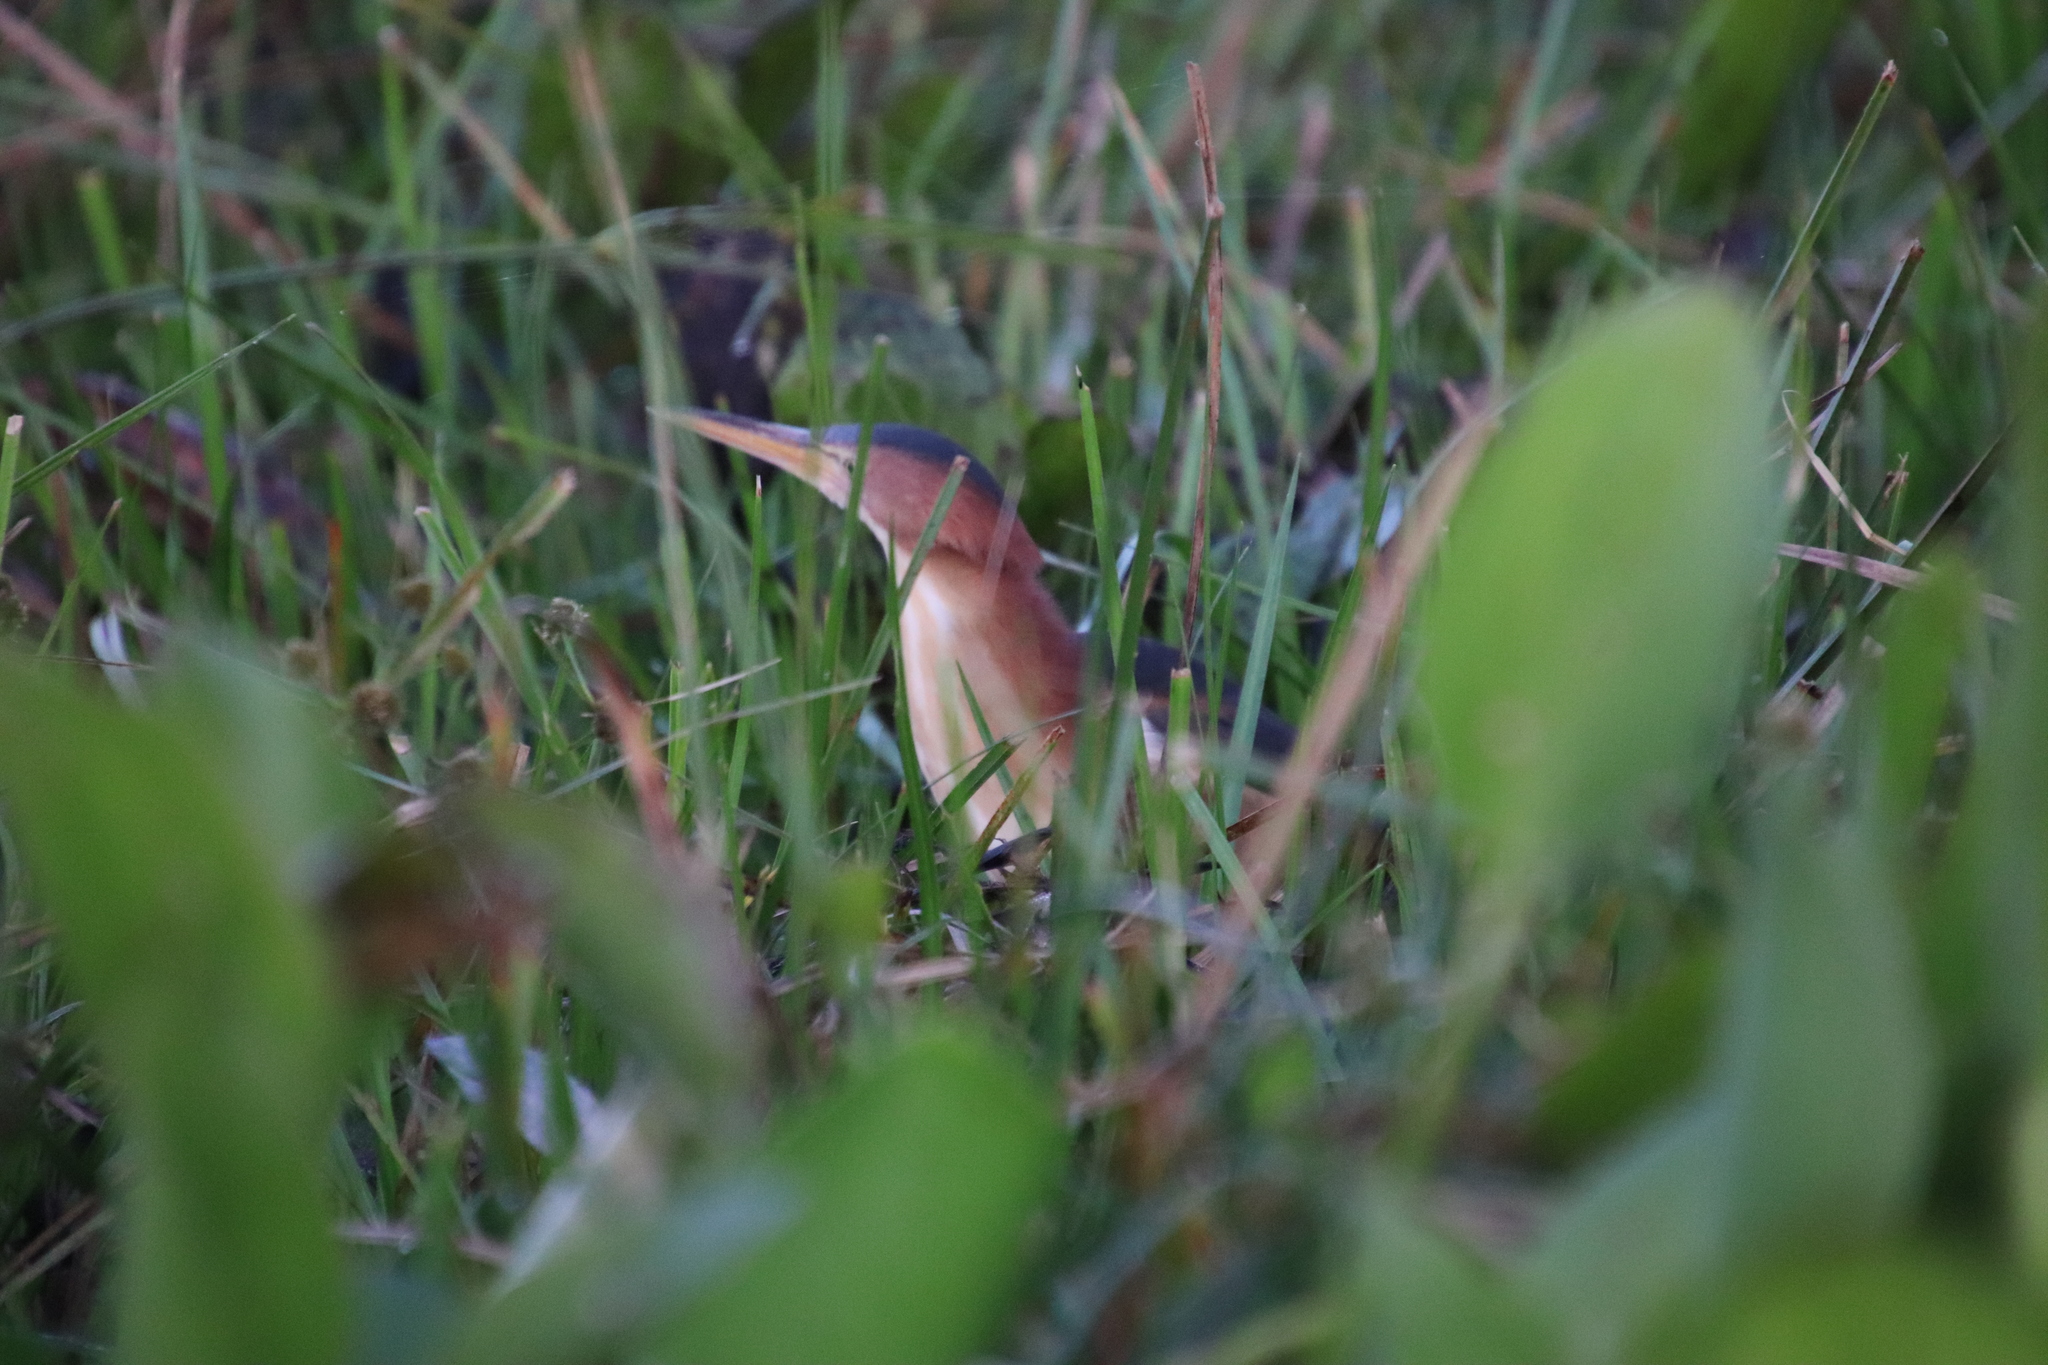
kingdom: Animalia
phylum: Chordata
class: Aves
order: Pelecaniformes
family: Ardeidae
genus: Ixobrychus
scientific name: Ixobrychus exilis
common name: Least bittern
